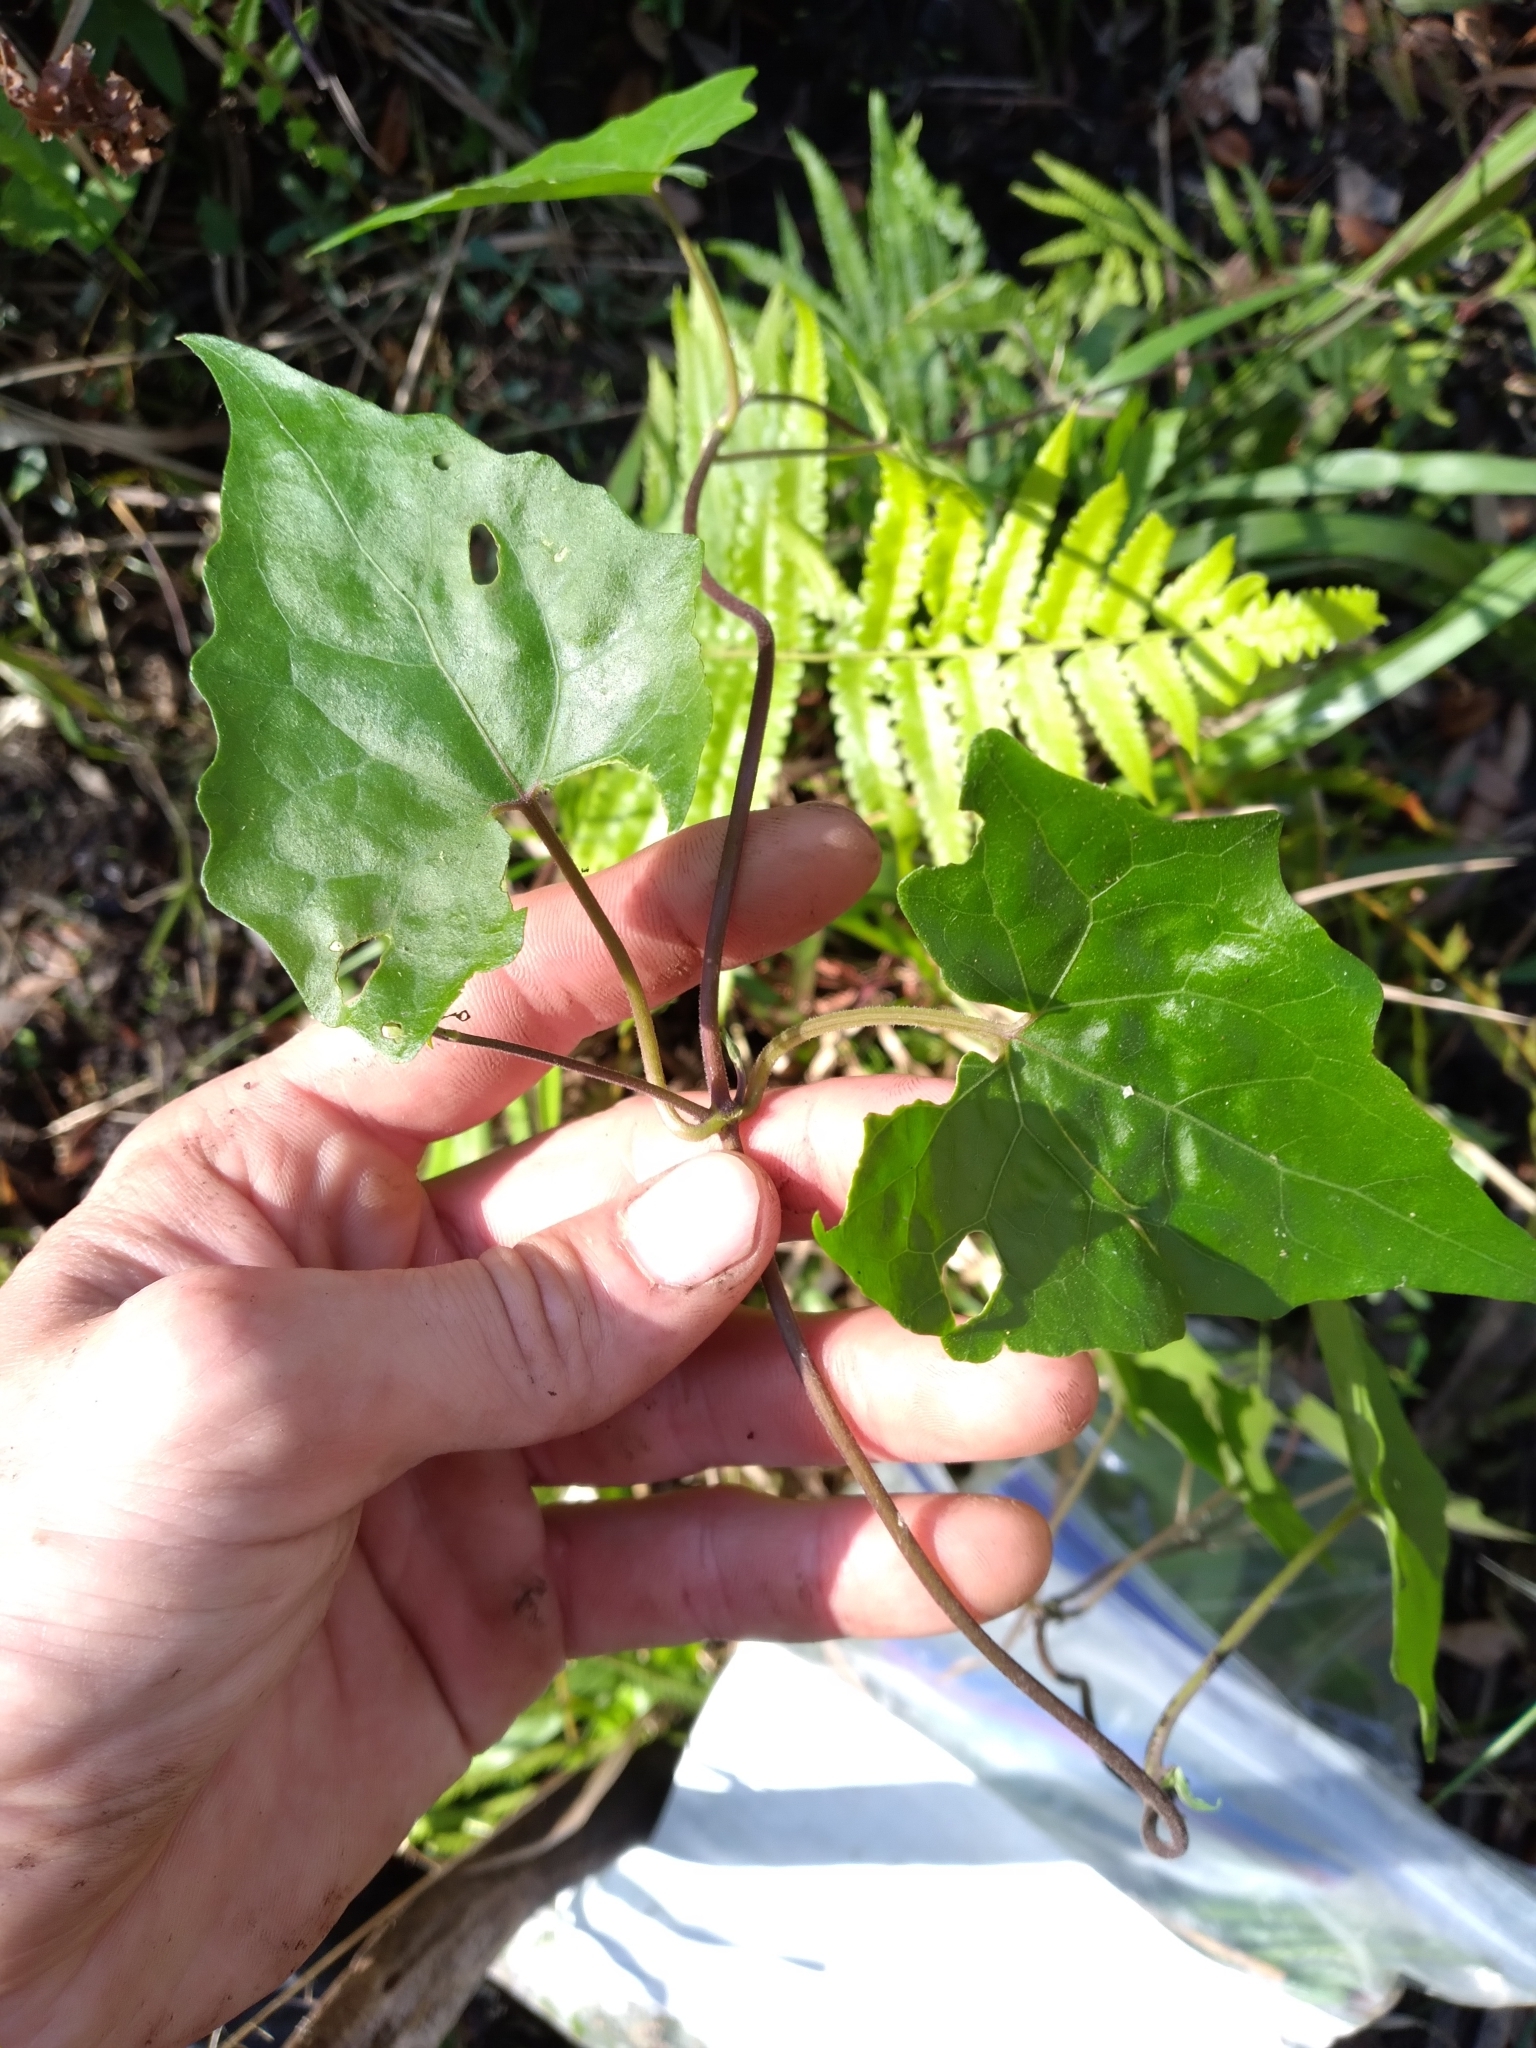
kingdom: Plantae
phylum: Tracheophyta
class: Magnoliopsida
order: Asterales
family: Asteraceae
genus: Mikania
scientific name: Mikania scandens
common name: Climbing hempvine
